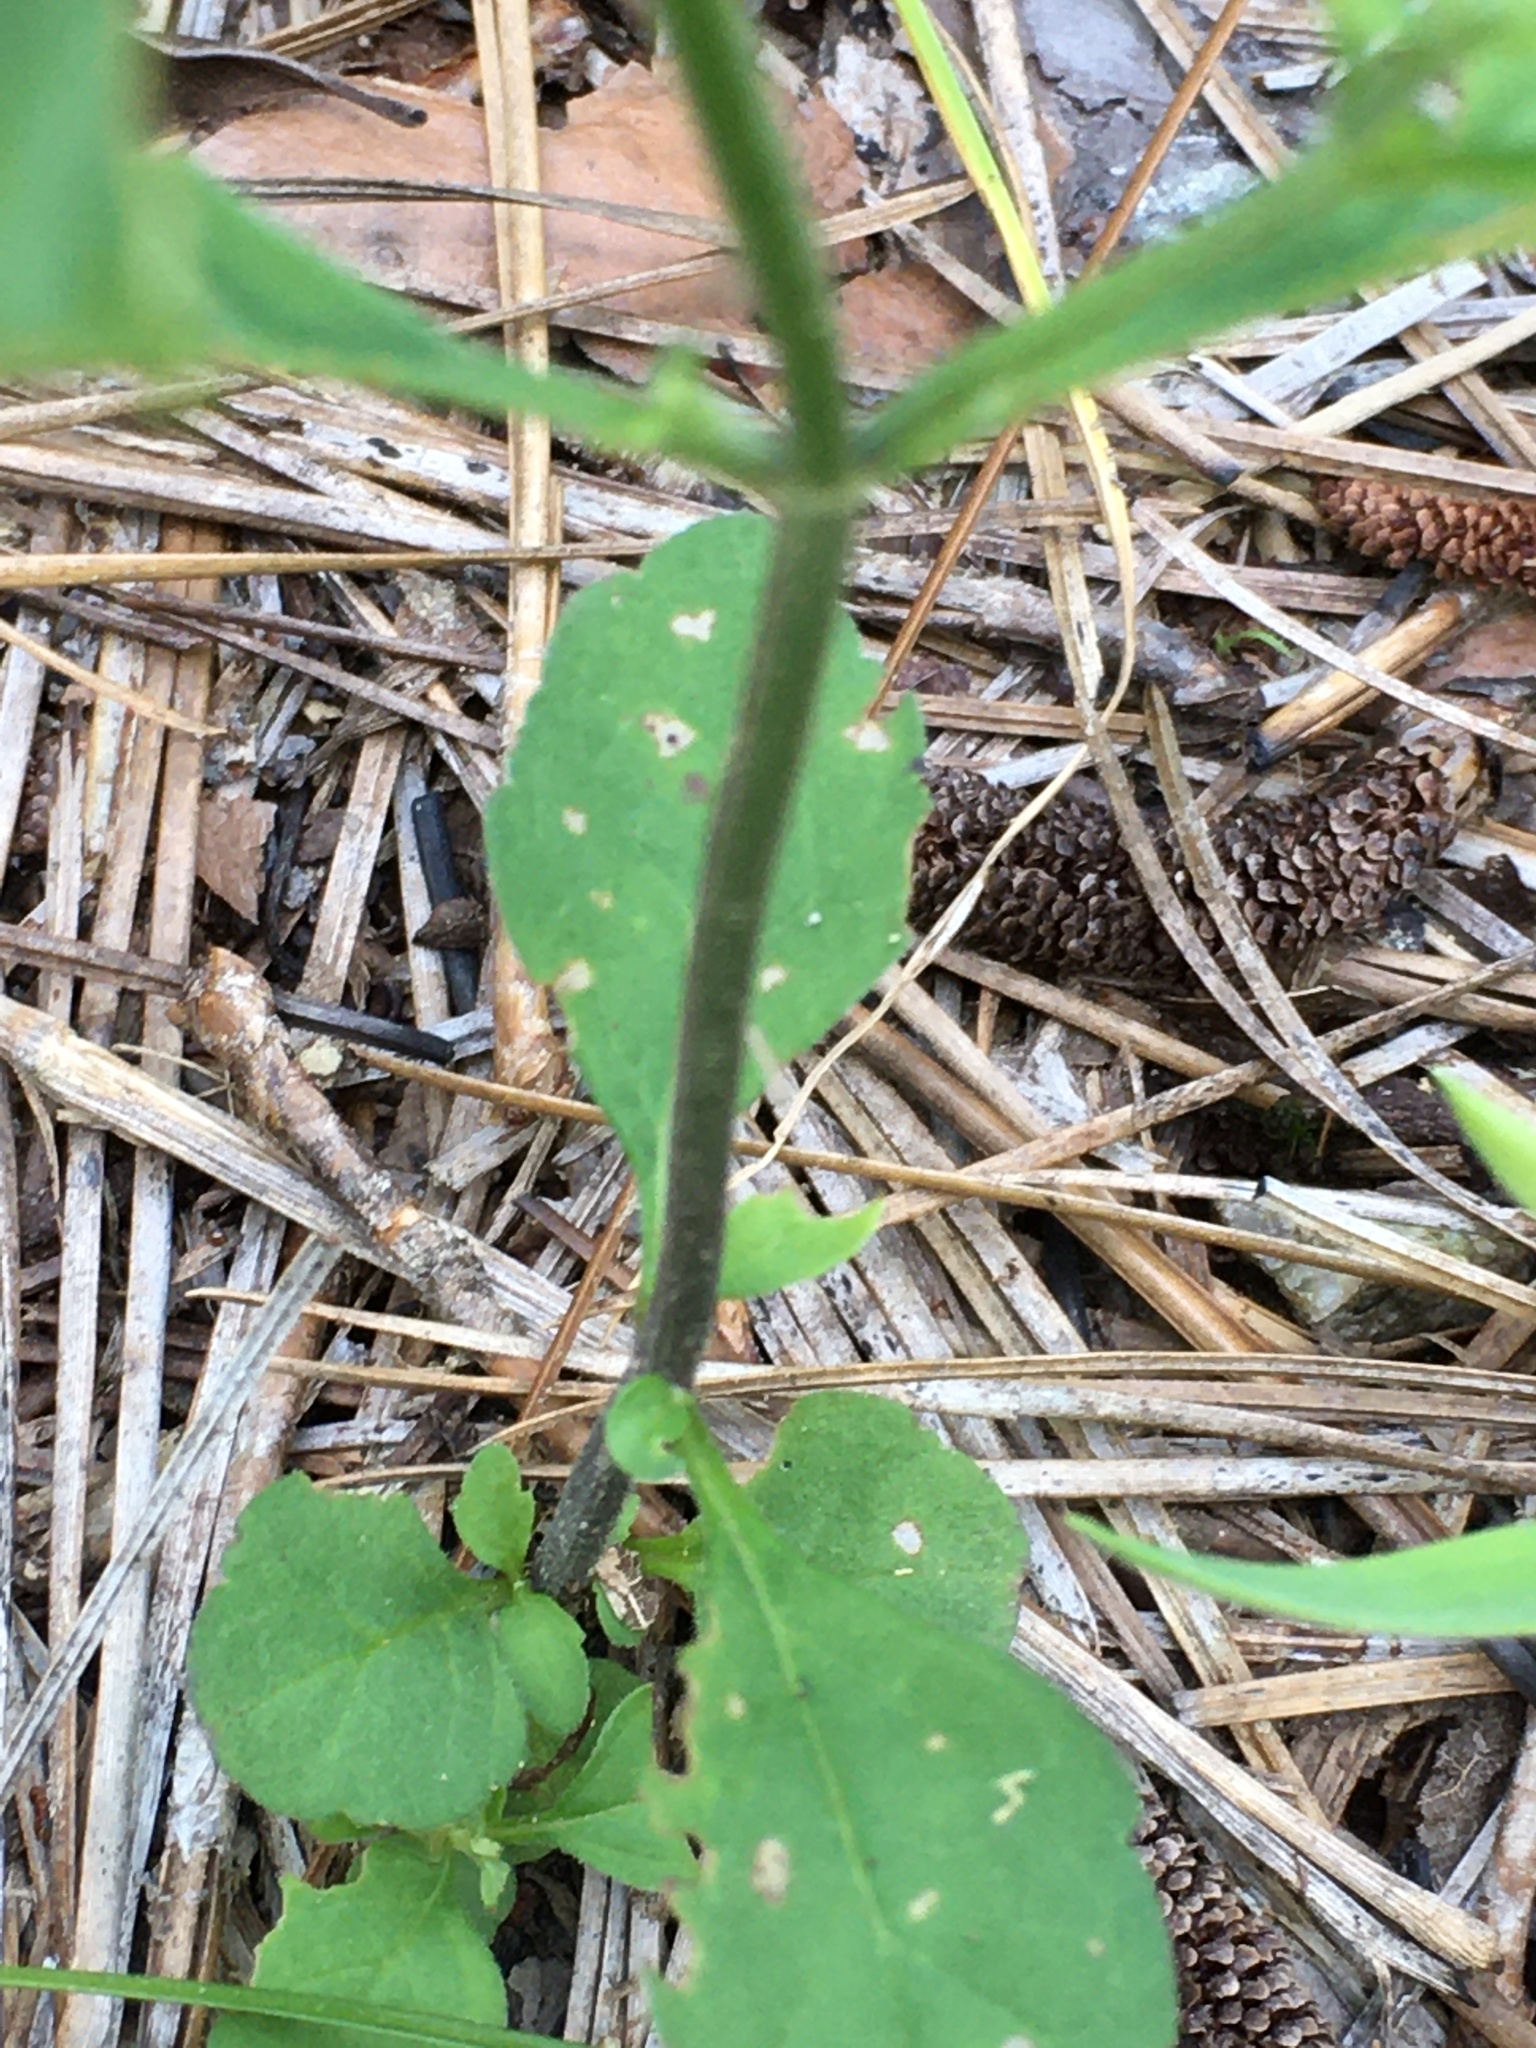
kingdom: Plantae
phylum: Tracheophyta
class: Magnoliopsida
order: Lamiales
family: Lamiaceae
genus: Scutellaria
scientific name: Scutellaria integrifolia
